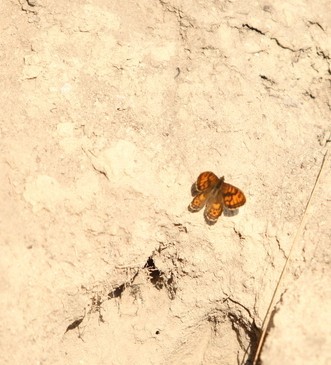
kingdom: Animalia
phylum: Arthropoda
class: Insecta
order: Lepidoptera
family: Nymphalidae
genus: Pararge
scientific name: Pararge Lasiommata megera
